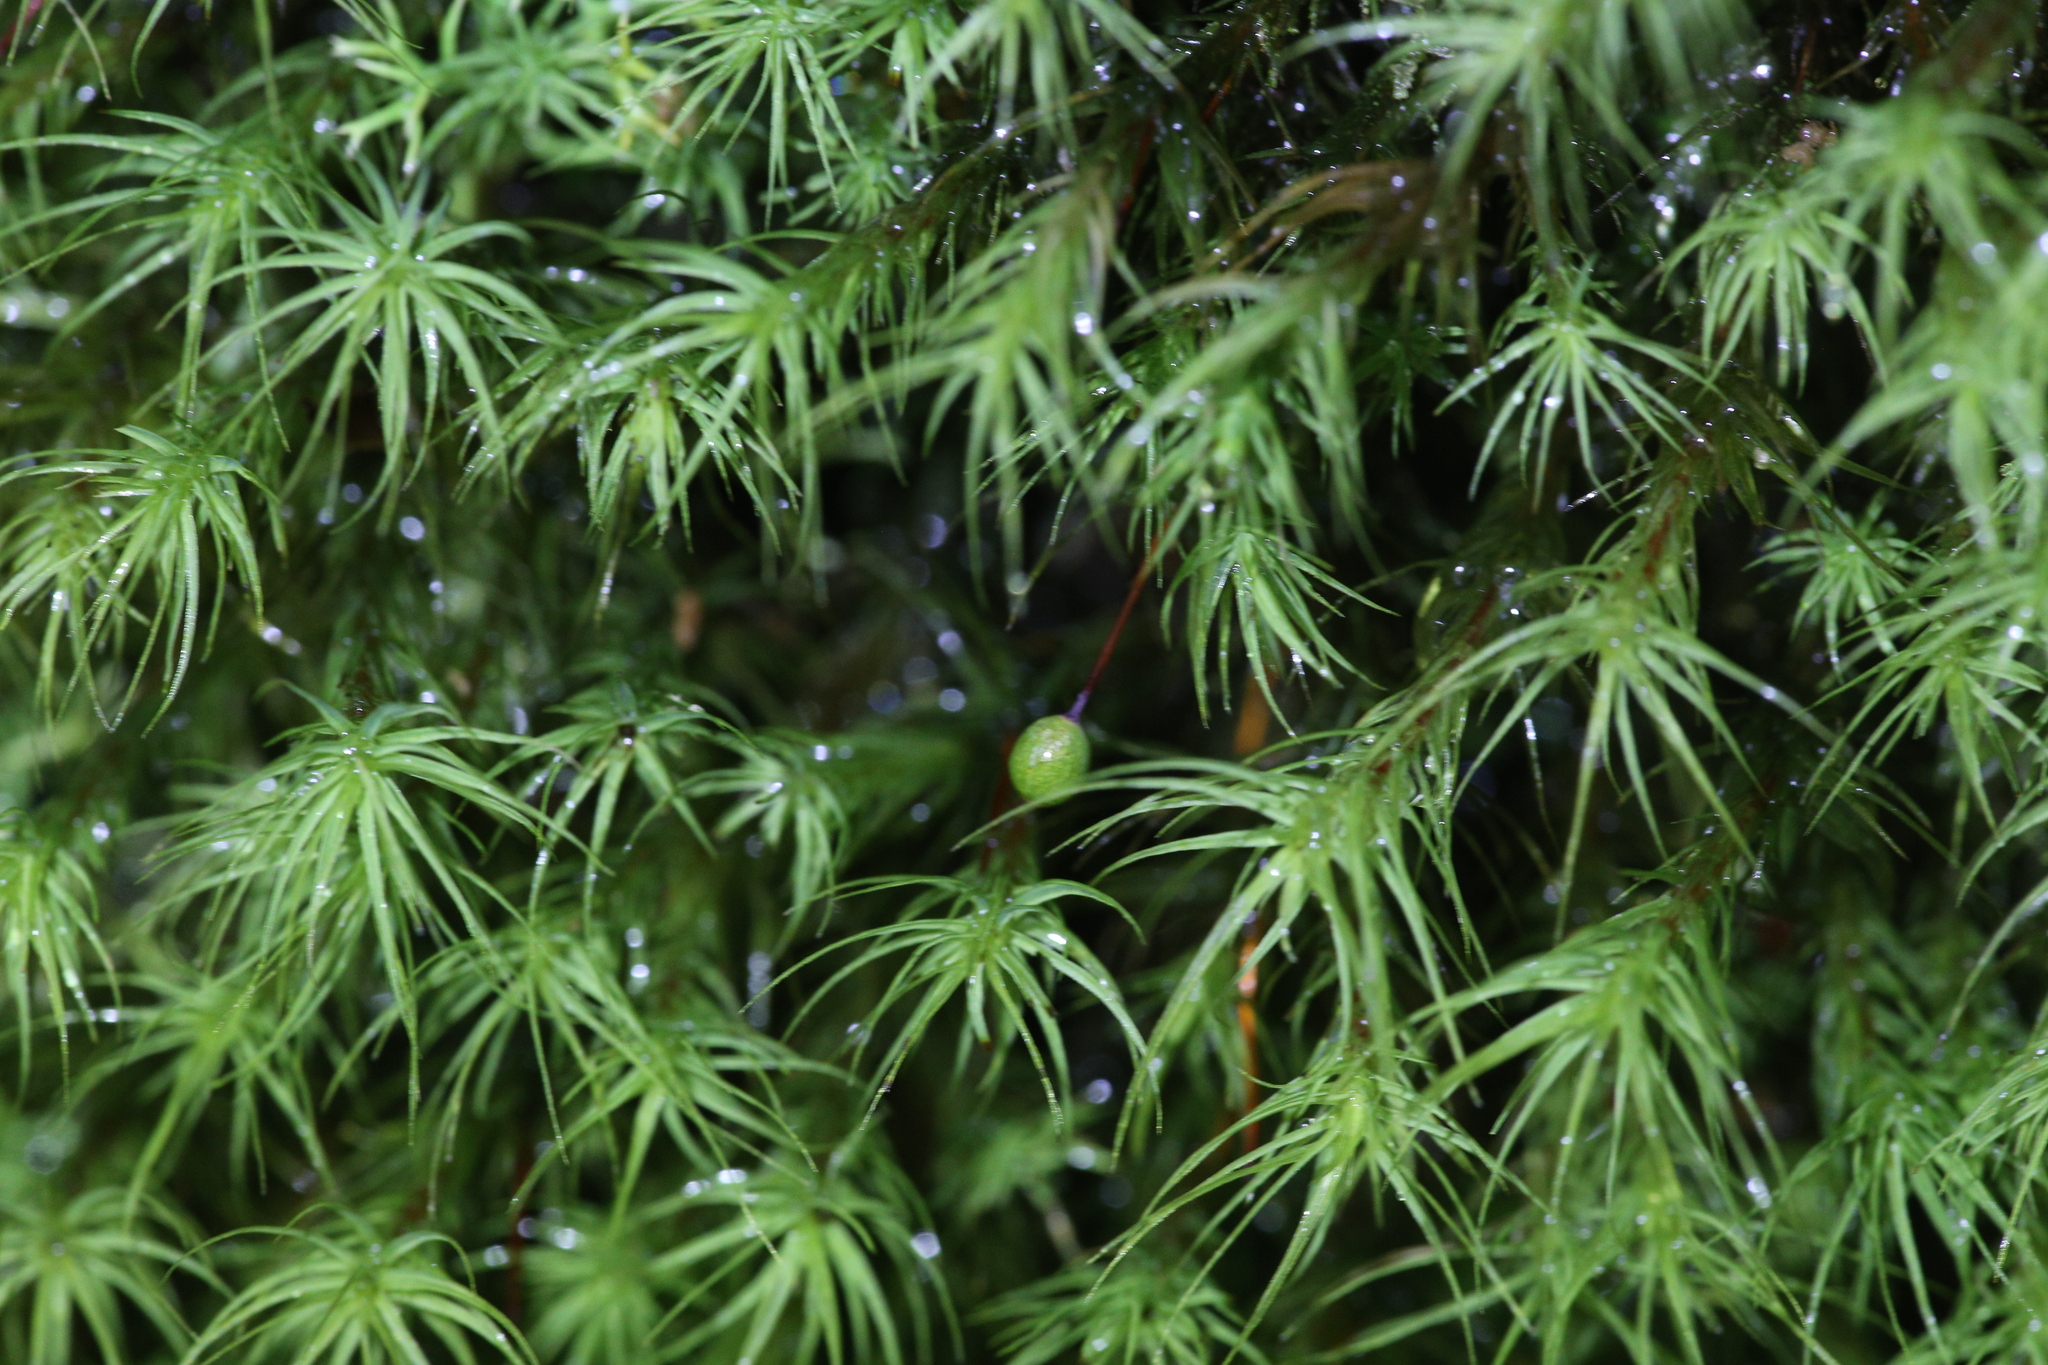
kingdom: Plantae
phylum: Bryophyta
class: Bryopsida
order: Bartramiales
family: Bartramiaceae
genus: Bartramia
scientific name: Bartramia mossmaniana
